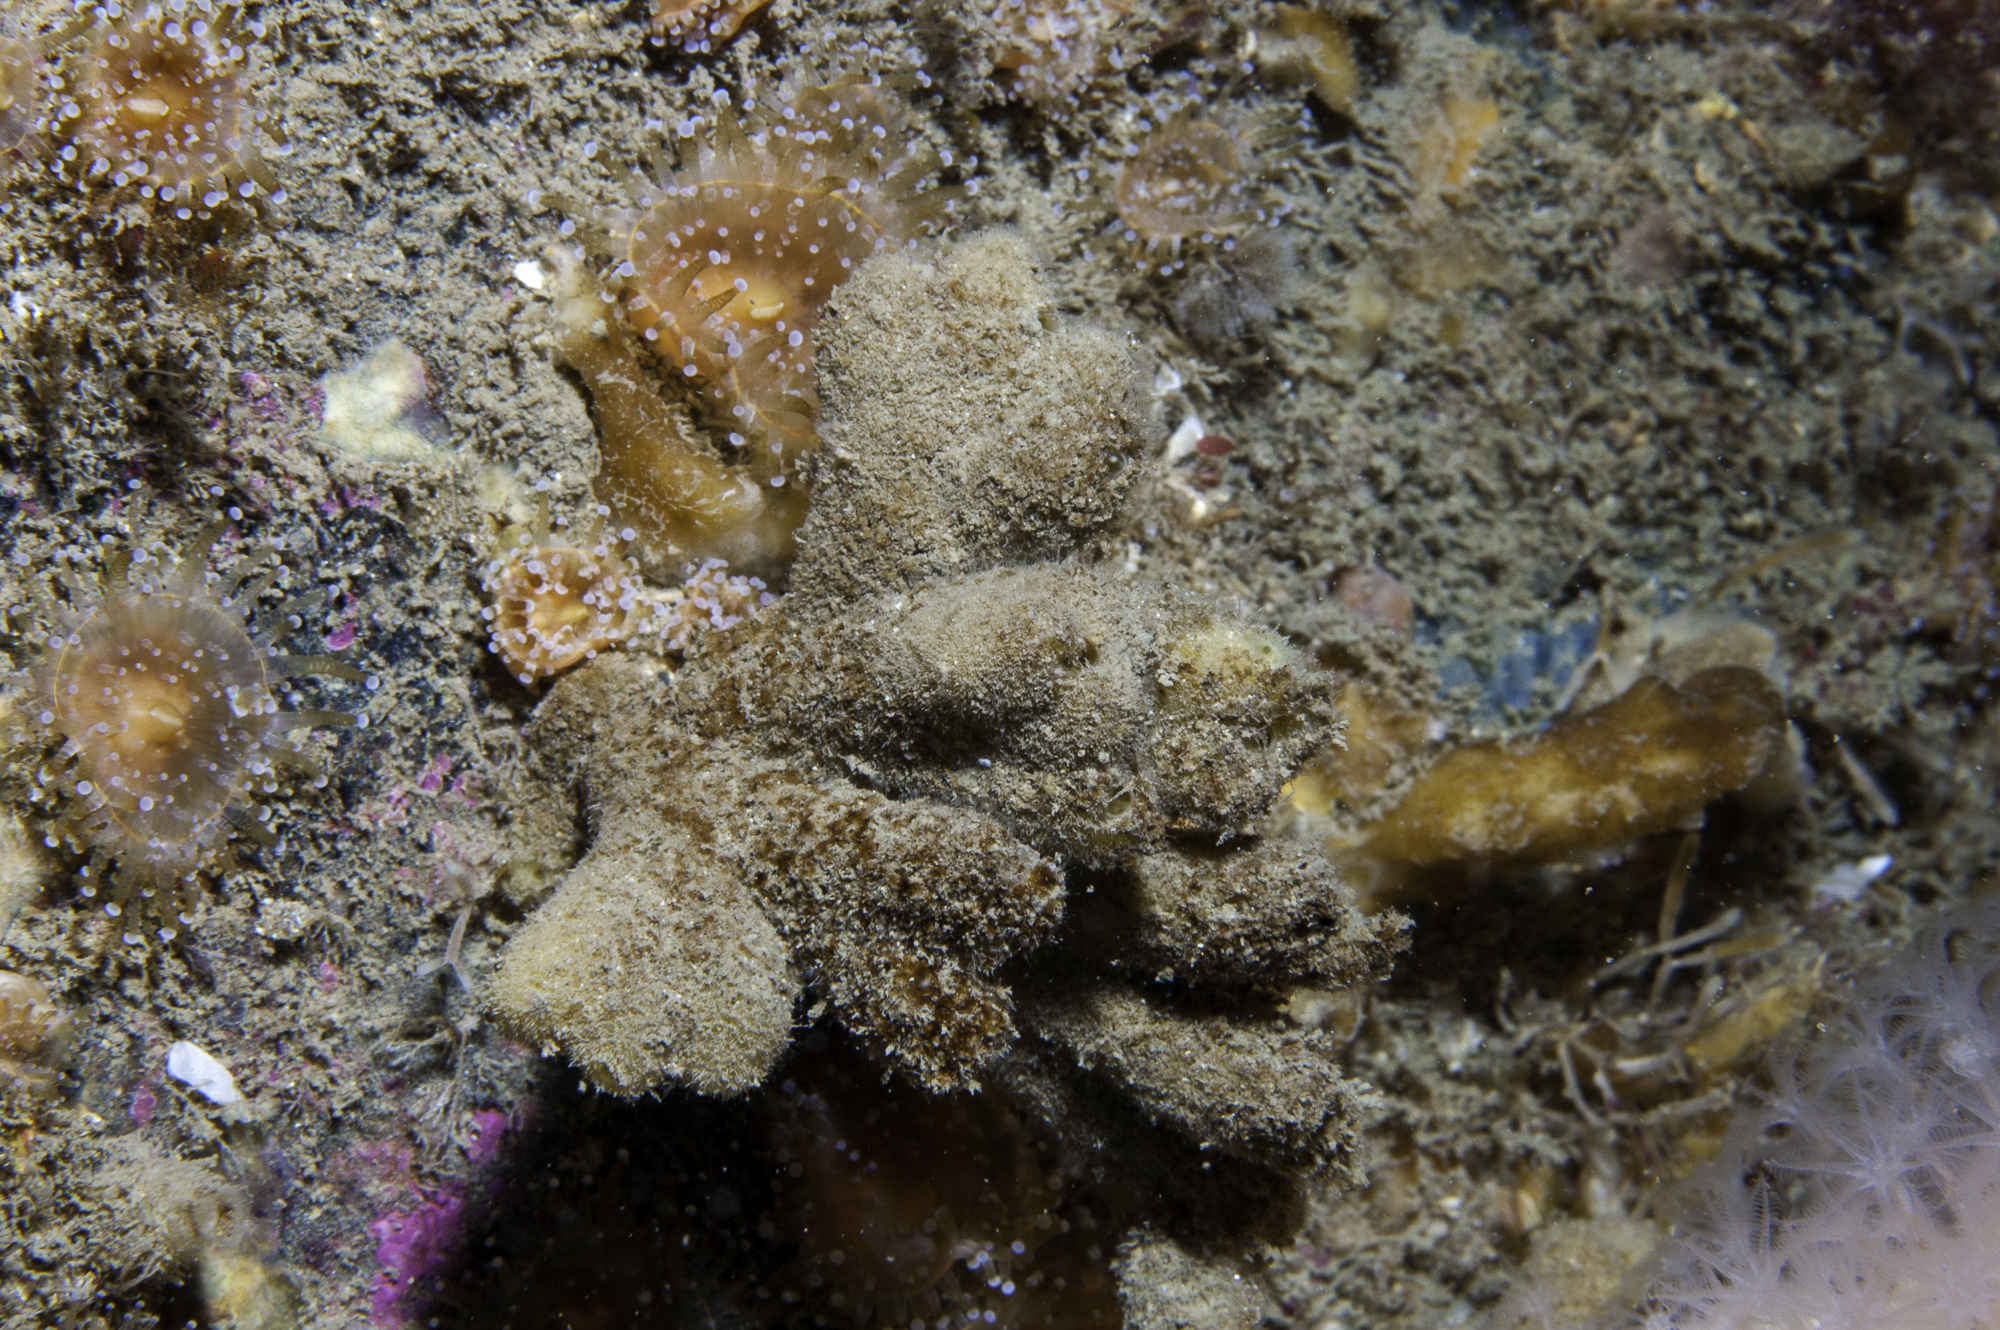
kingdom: Animalia
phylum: Porifera
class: Demospongiae
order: Axinellida
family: Raspailiidae
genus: Raspailia
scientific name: Raspailia ramosa
